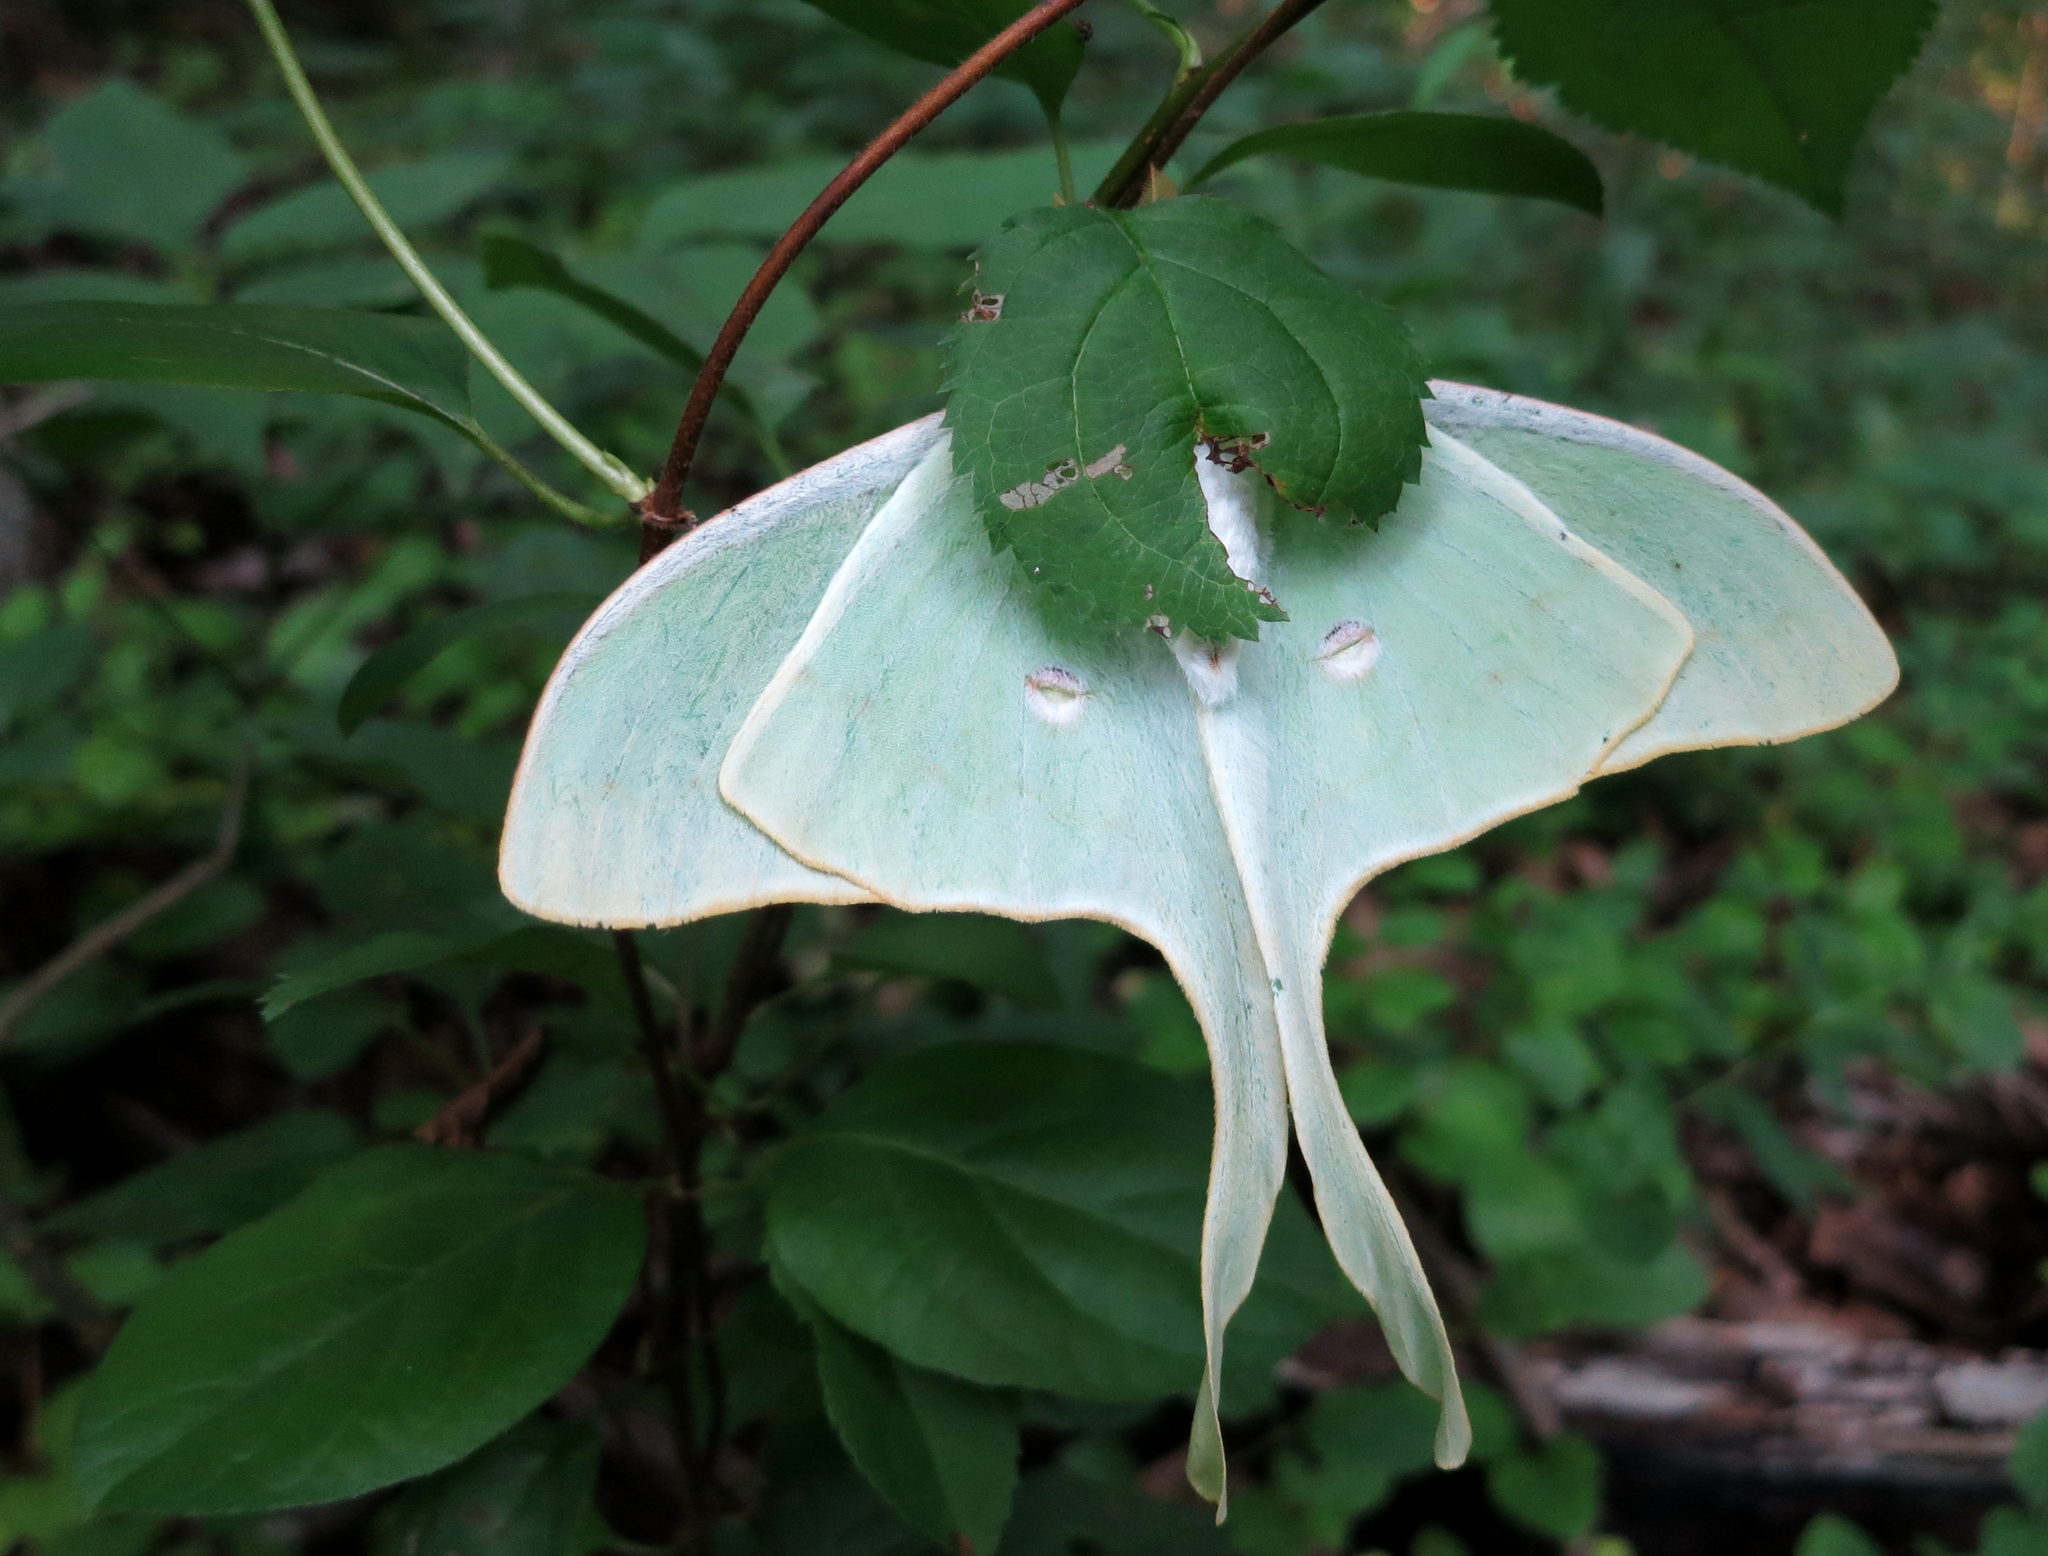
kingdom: Animalia
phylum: Arthropoda
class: Insecta
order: Lepidoptera
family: Saturniidae
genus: Actias
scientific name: Actias luna
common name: Luna moth
